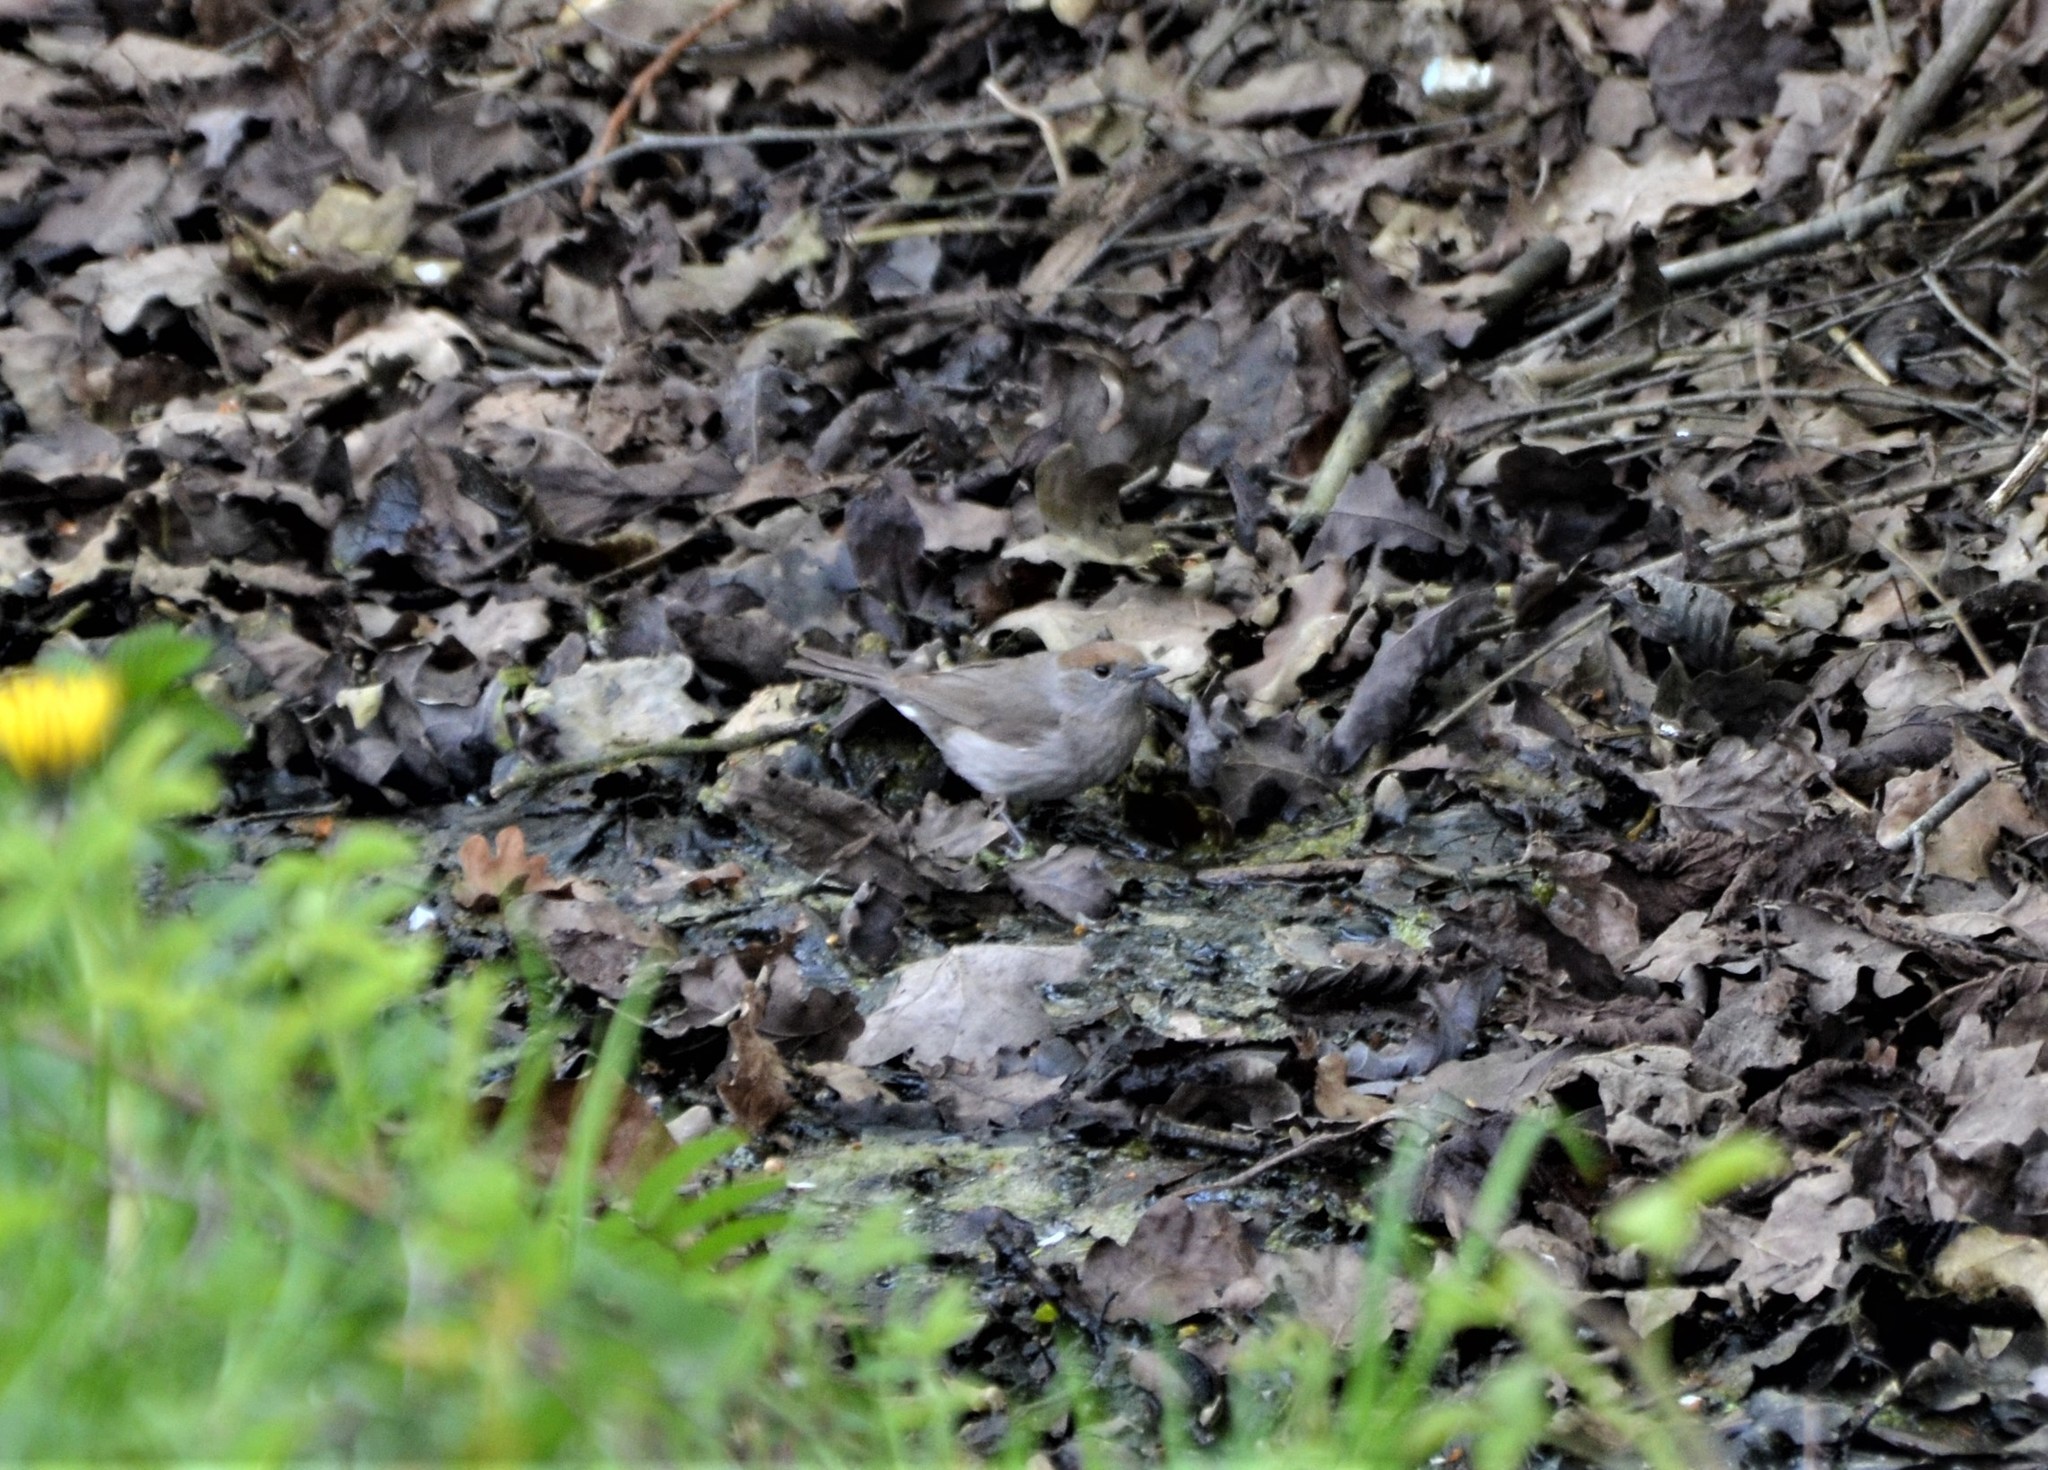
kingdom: Animalia
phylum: Chordata
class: Aves
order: Passeriformes
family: Sylviidae
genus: Sylvia
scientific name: Sylvia atricapilla
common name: Eurasian blackcap
